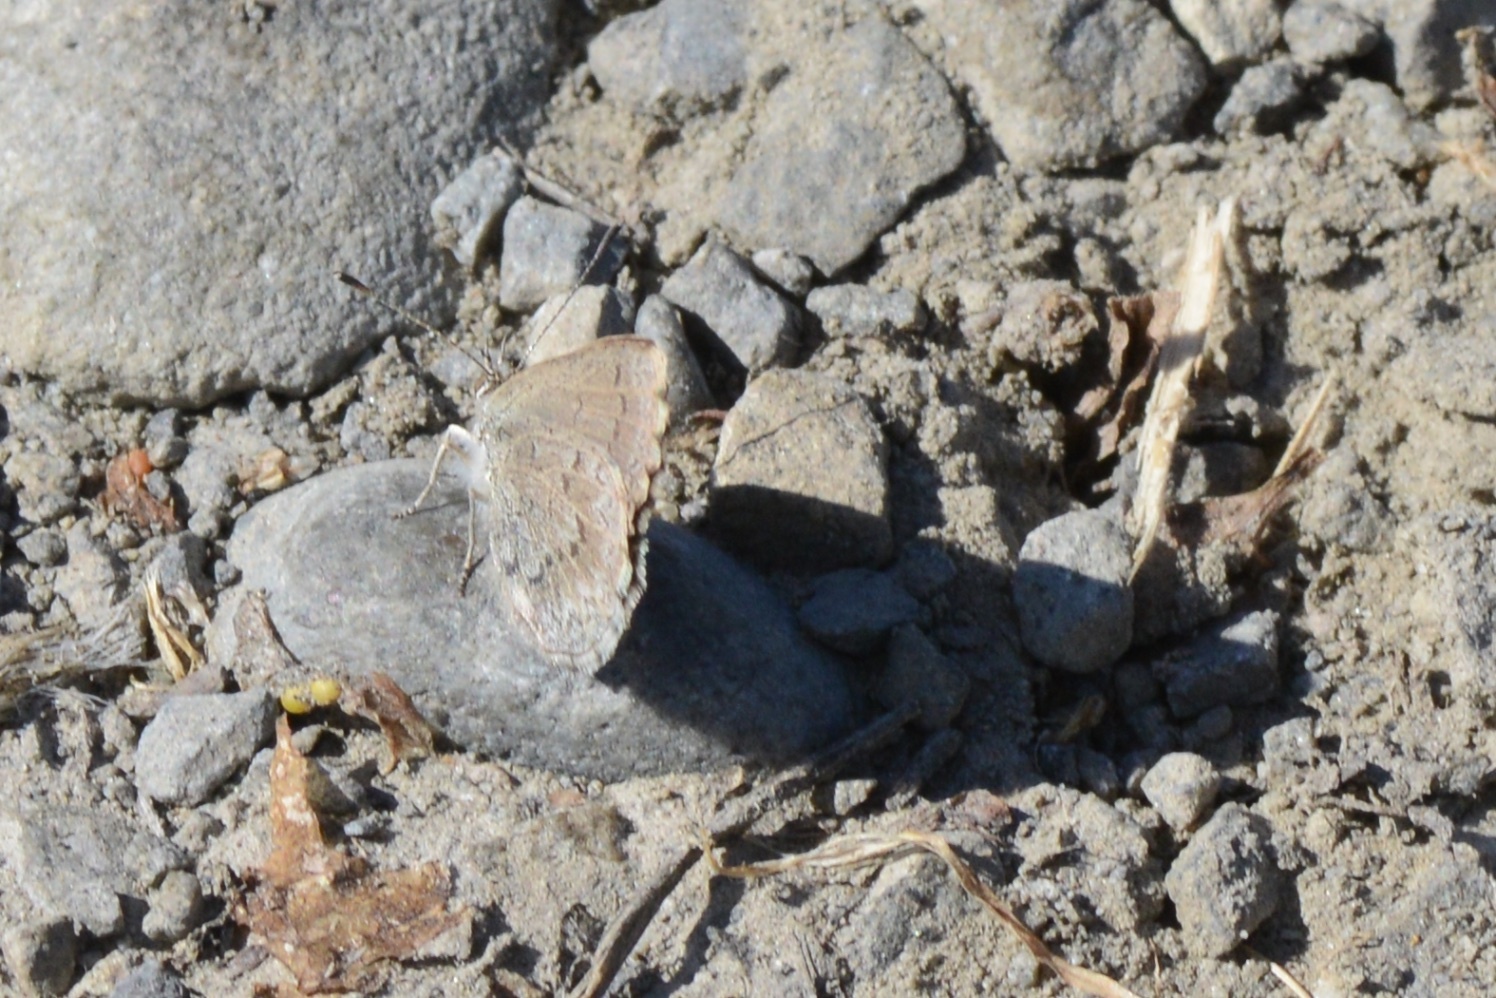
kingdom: Animalia
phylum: Arthropoda
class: Insecta
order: Lepidoptera
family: Lycaenidae
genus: Zizina
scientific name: Zizina oxleyi
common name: Southern blue
